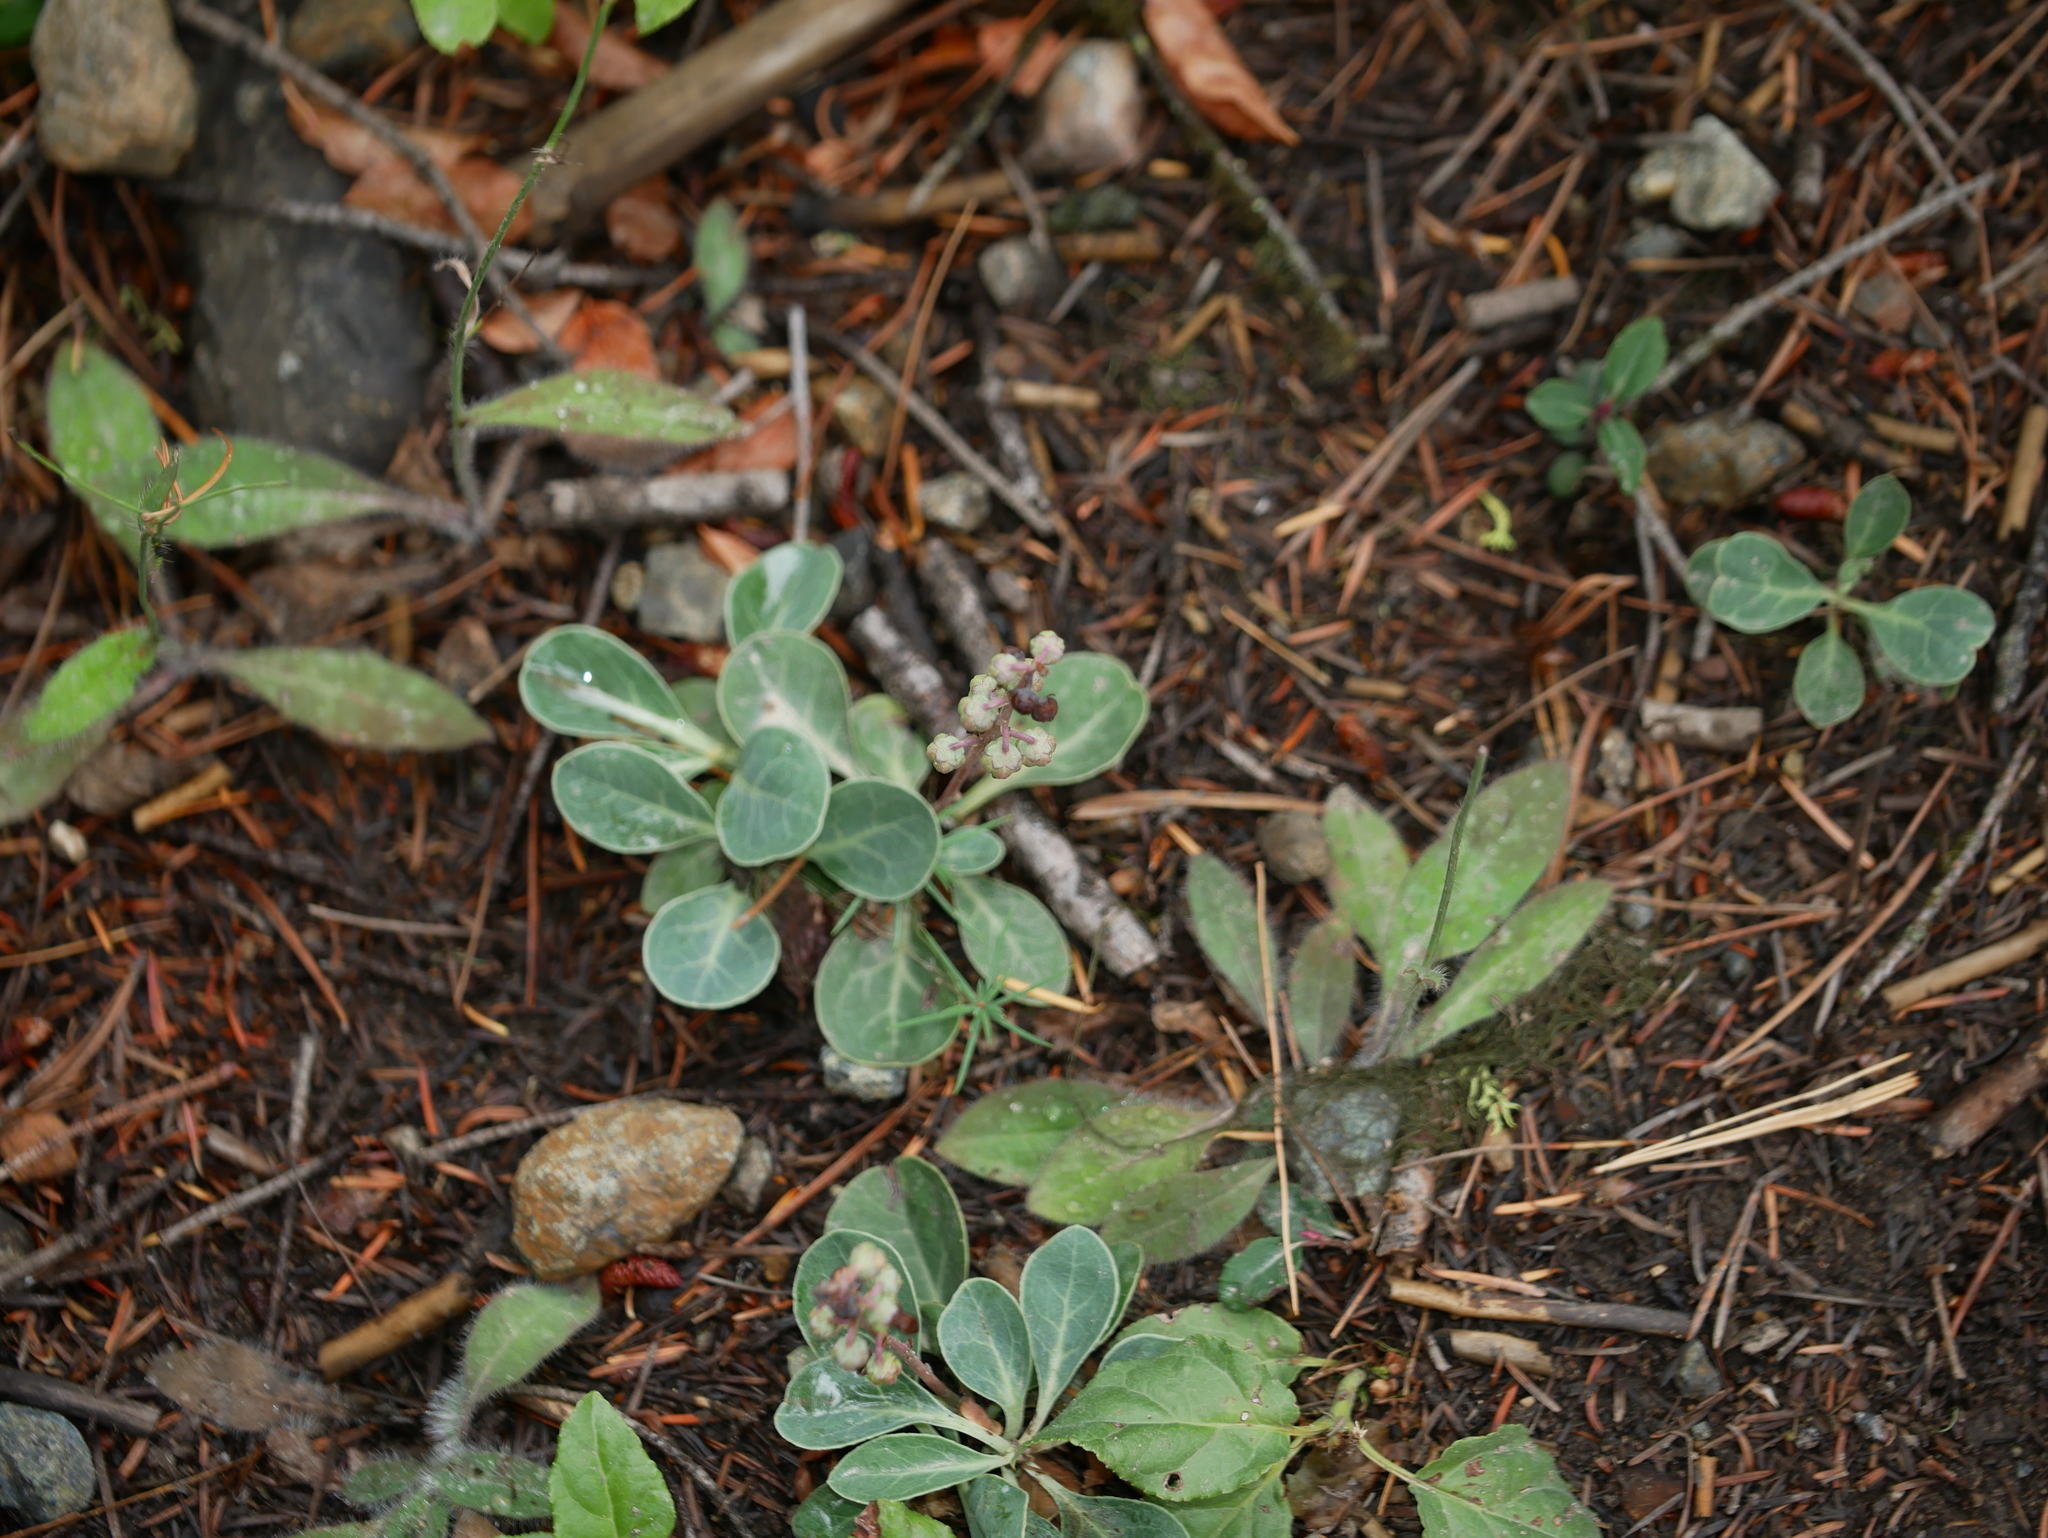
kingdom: Plantae
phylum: Tracheophyta
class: Magnoliopsida
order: Ericales
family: Ericaceae
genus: Pyrola
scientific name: Pyrola dentata
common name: Tooth-leaved wintergreen
